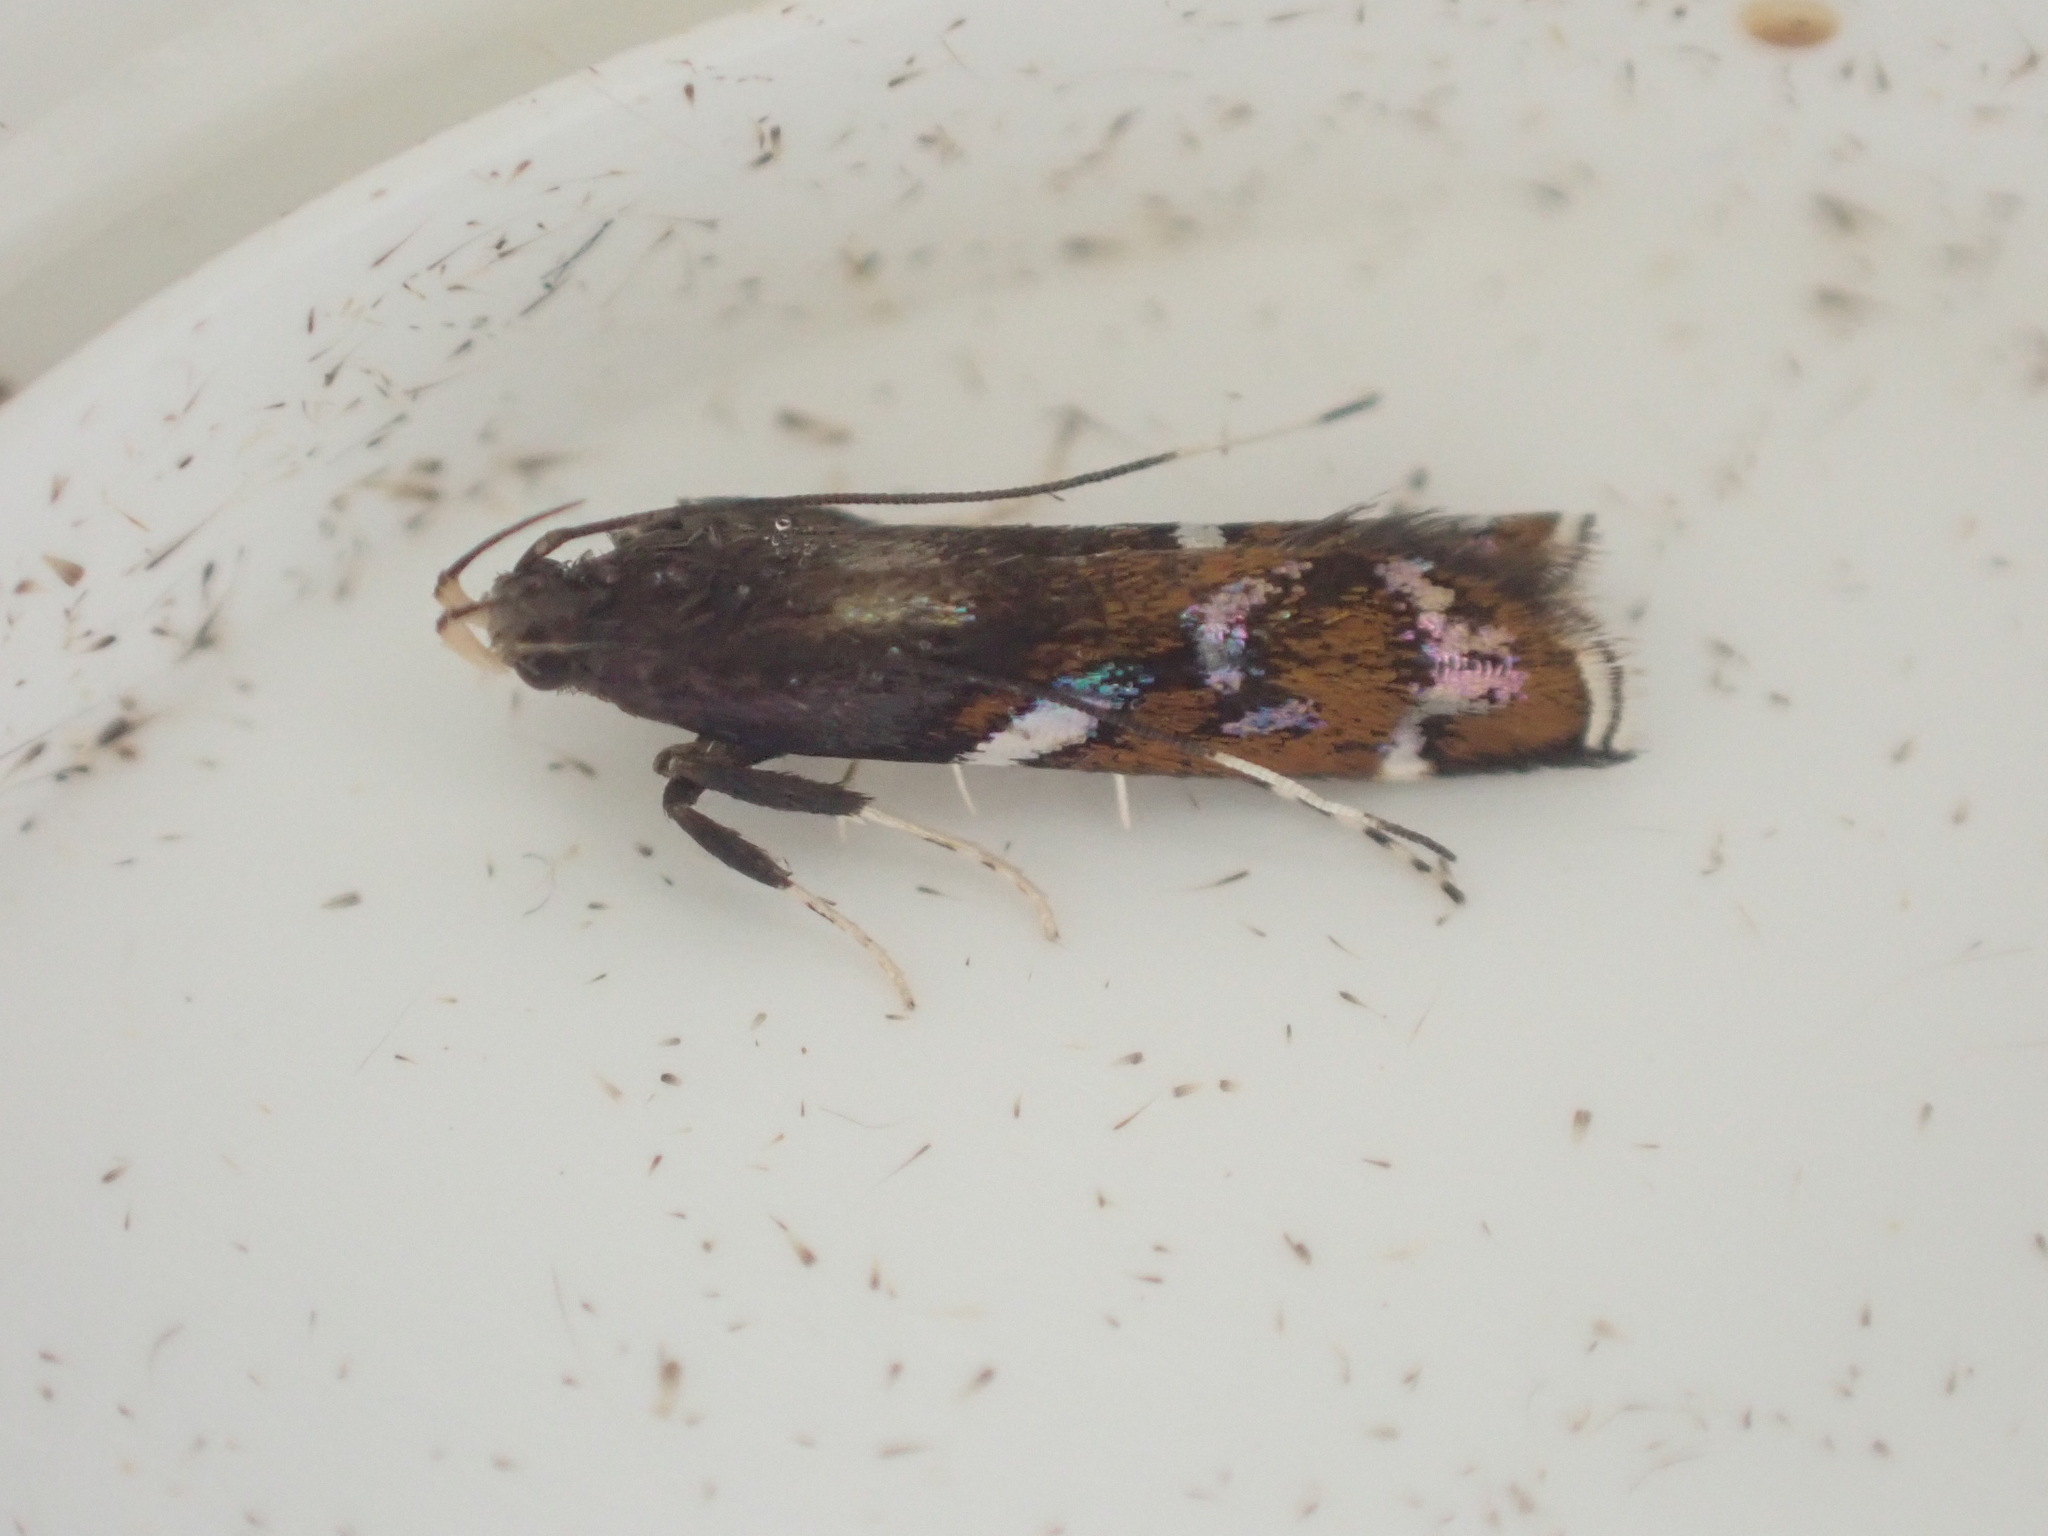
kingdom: Animalia
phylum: Arthropoda
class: Insecta
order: Lepidoptera
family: Depressariidae
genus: Compsistis
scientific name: Compsistis bifaciella
